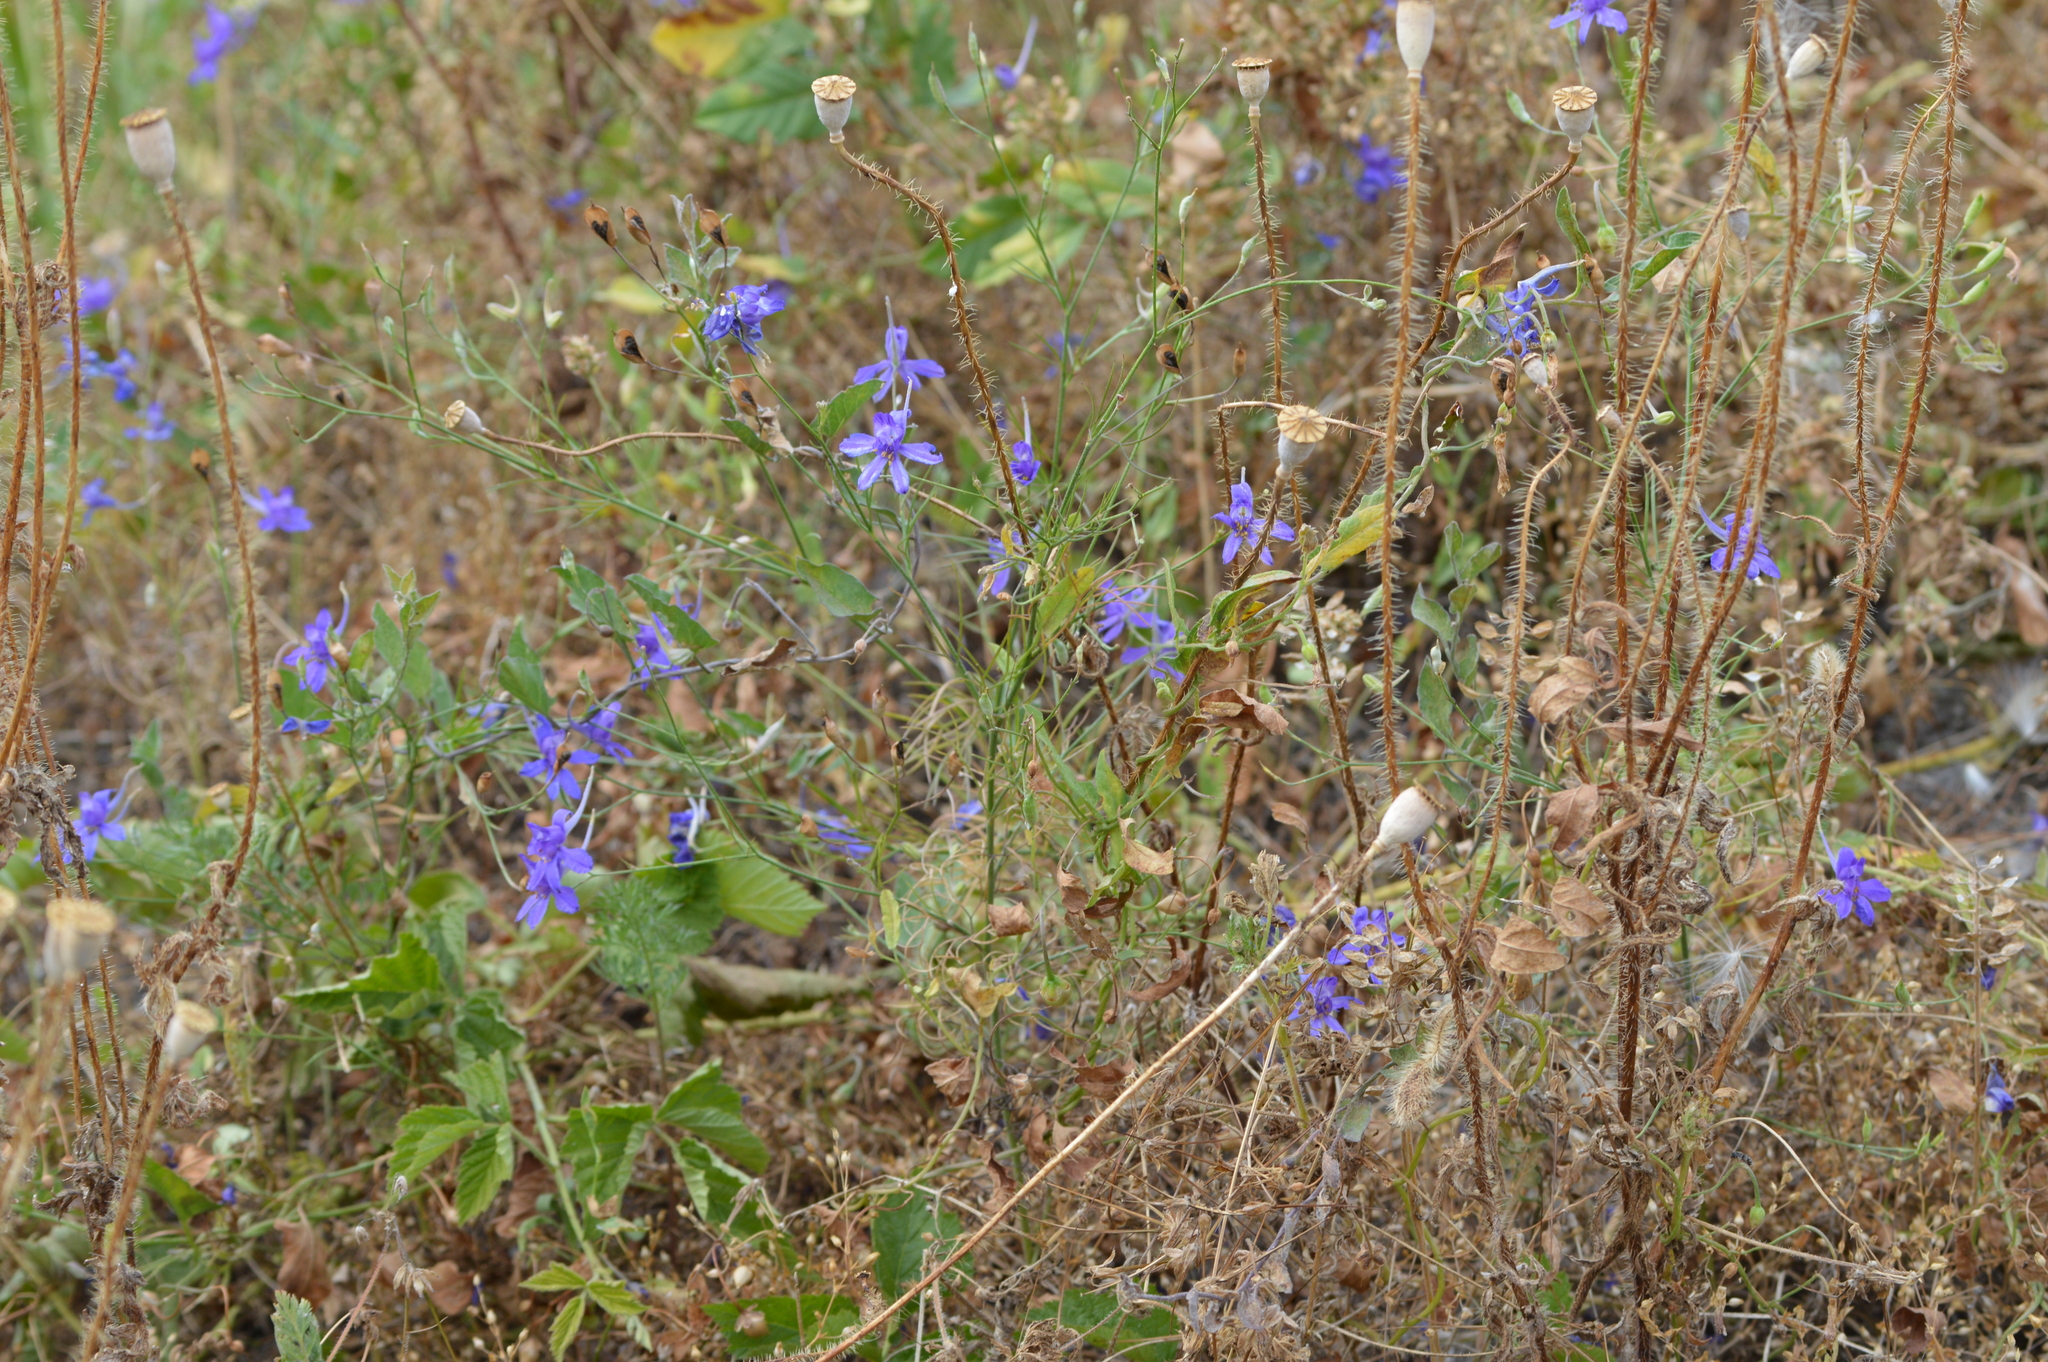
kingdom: Plantae
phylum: Tracheophyta
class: Magnoliopsida
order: Ranunculales
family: Ranunculaceae
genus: Delphinium
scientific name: Delphinium consolida
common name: Branching larkspur
